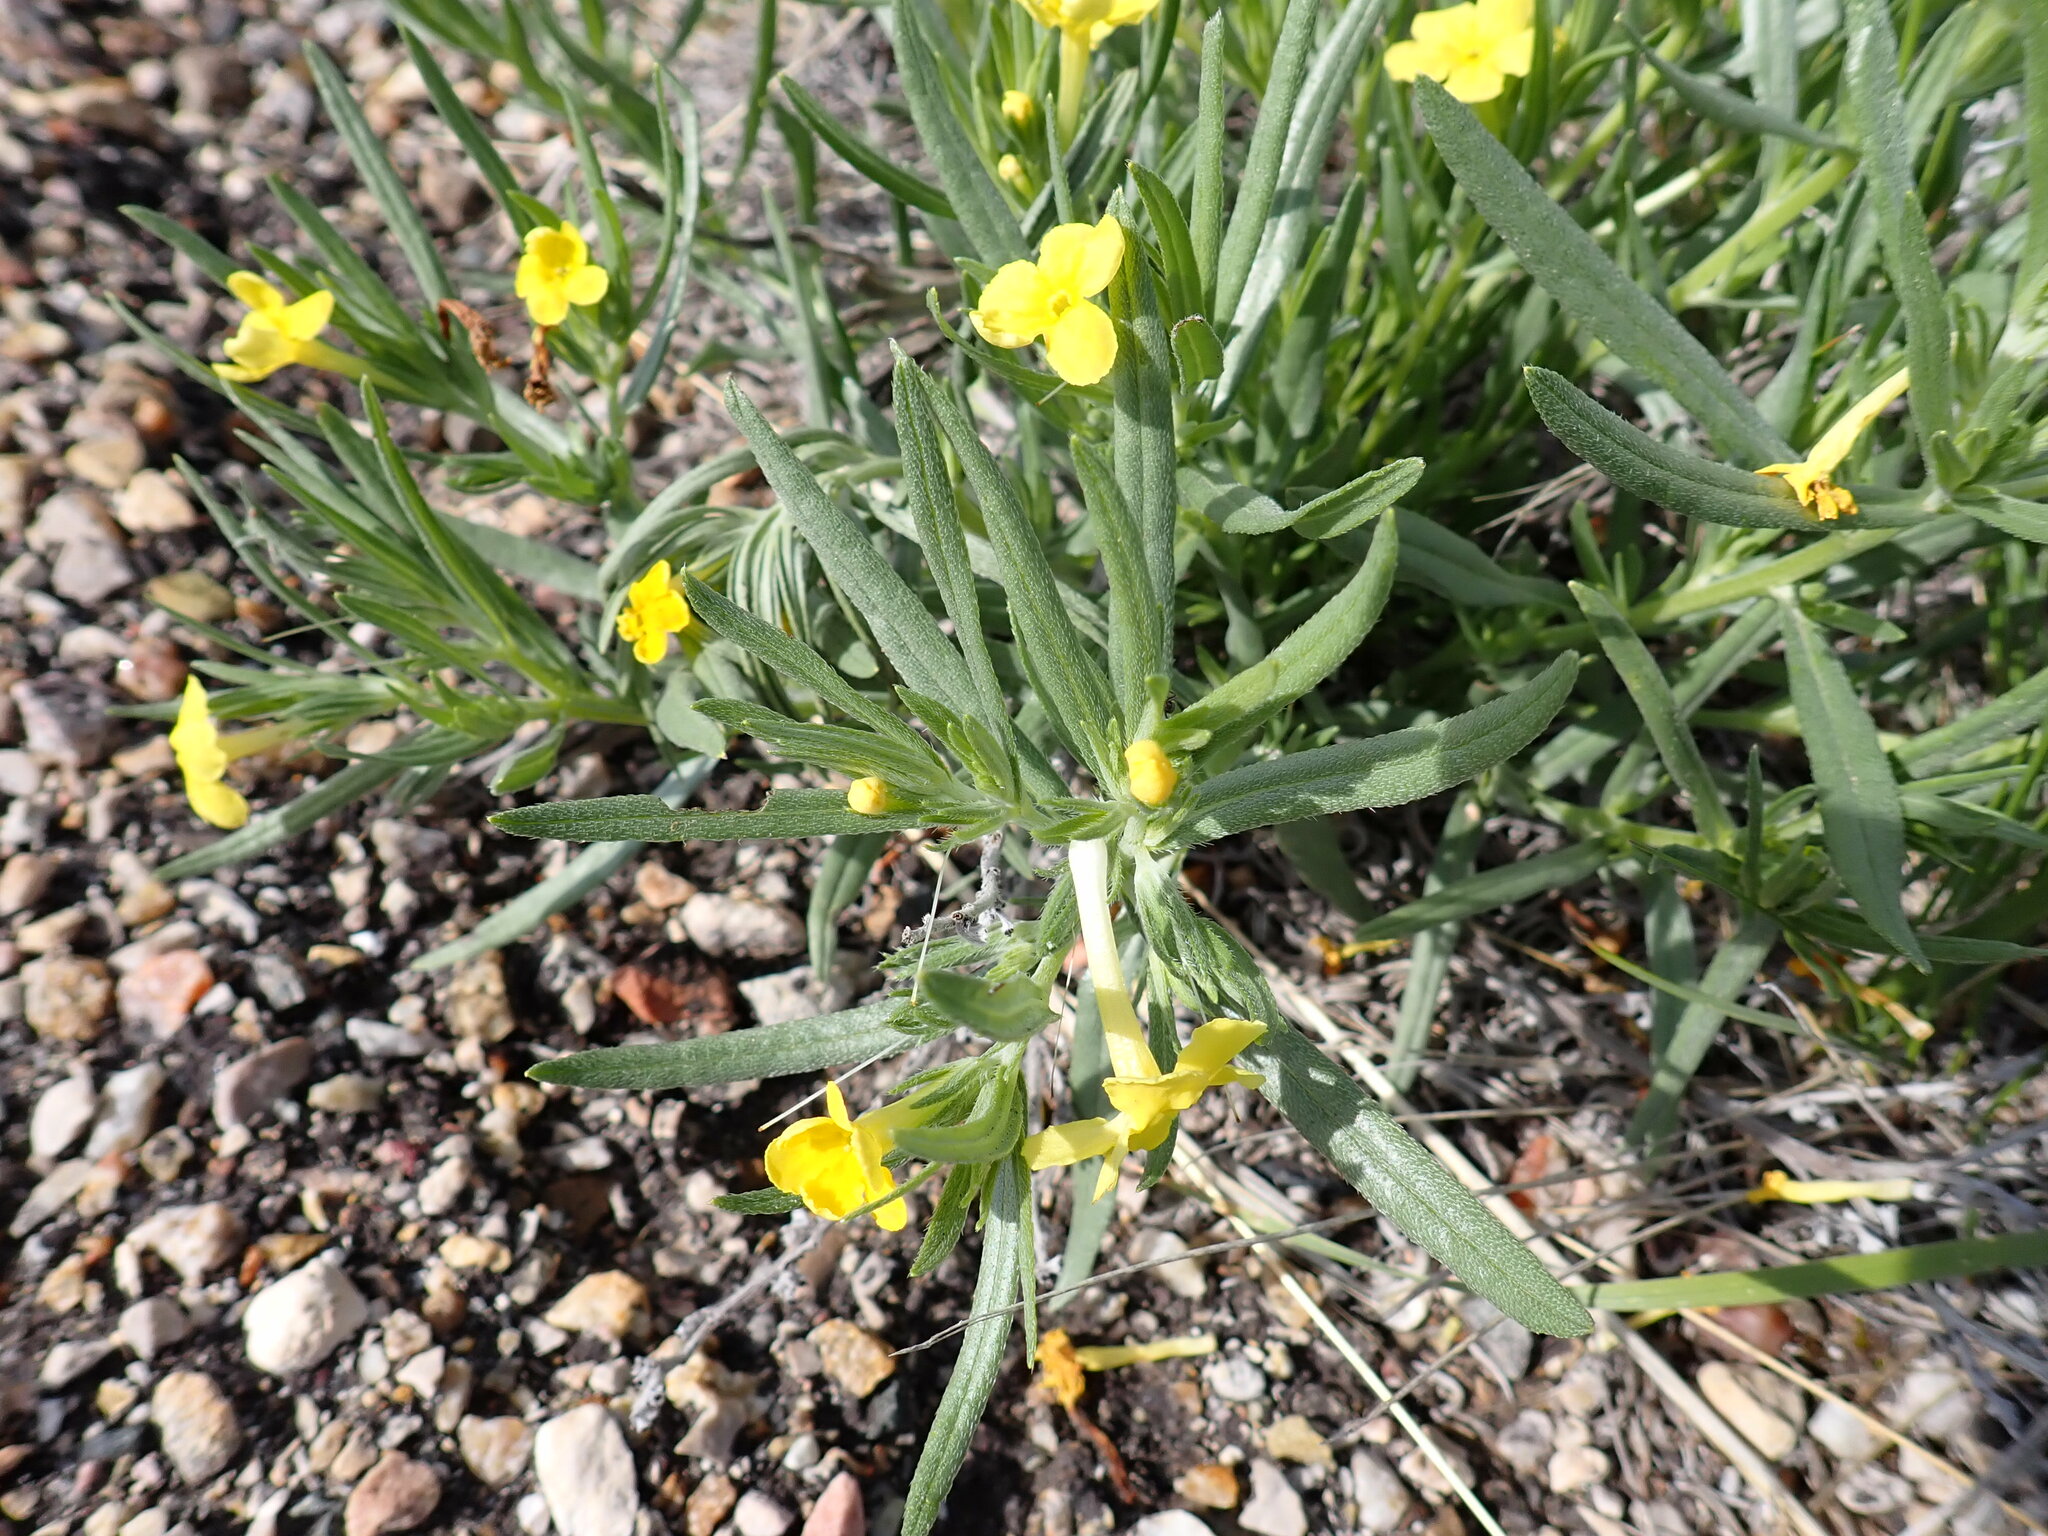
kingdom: Plantae
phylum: Tracheophyta
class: Magnoliopsida
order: Boraginales
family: Boraginaceae
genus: Lithospermum
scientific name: Lithospermum incisum
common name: Fringed gromwell
